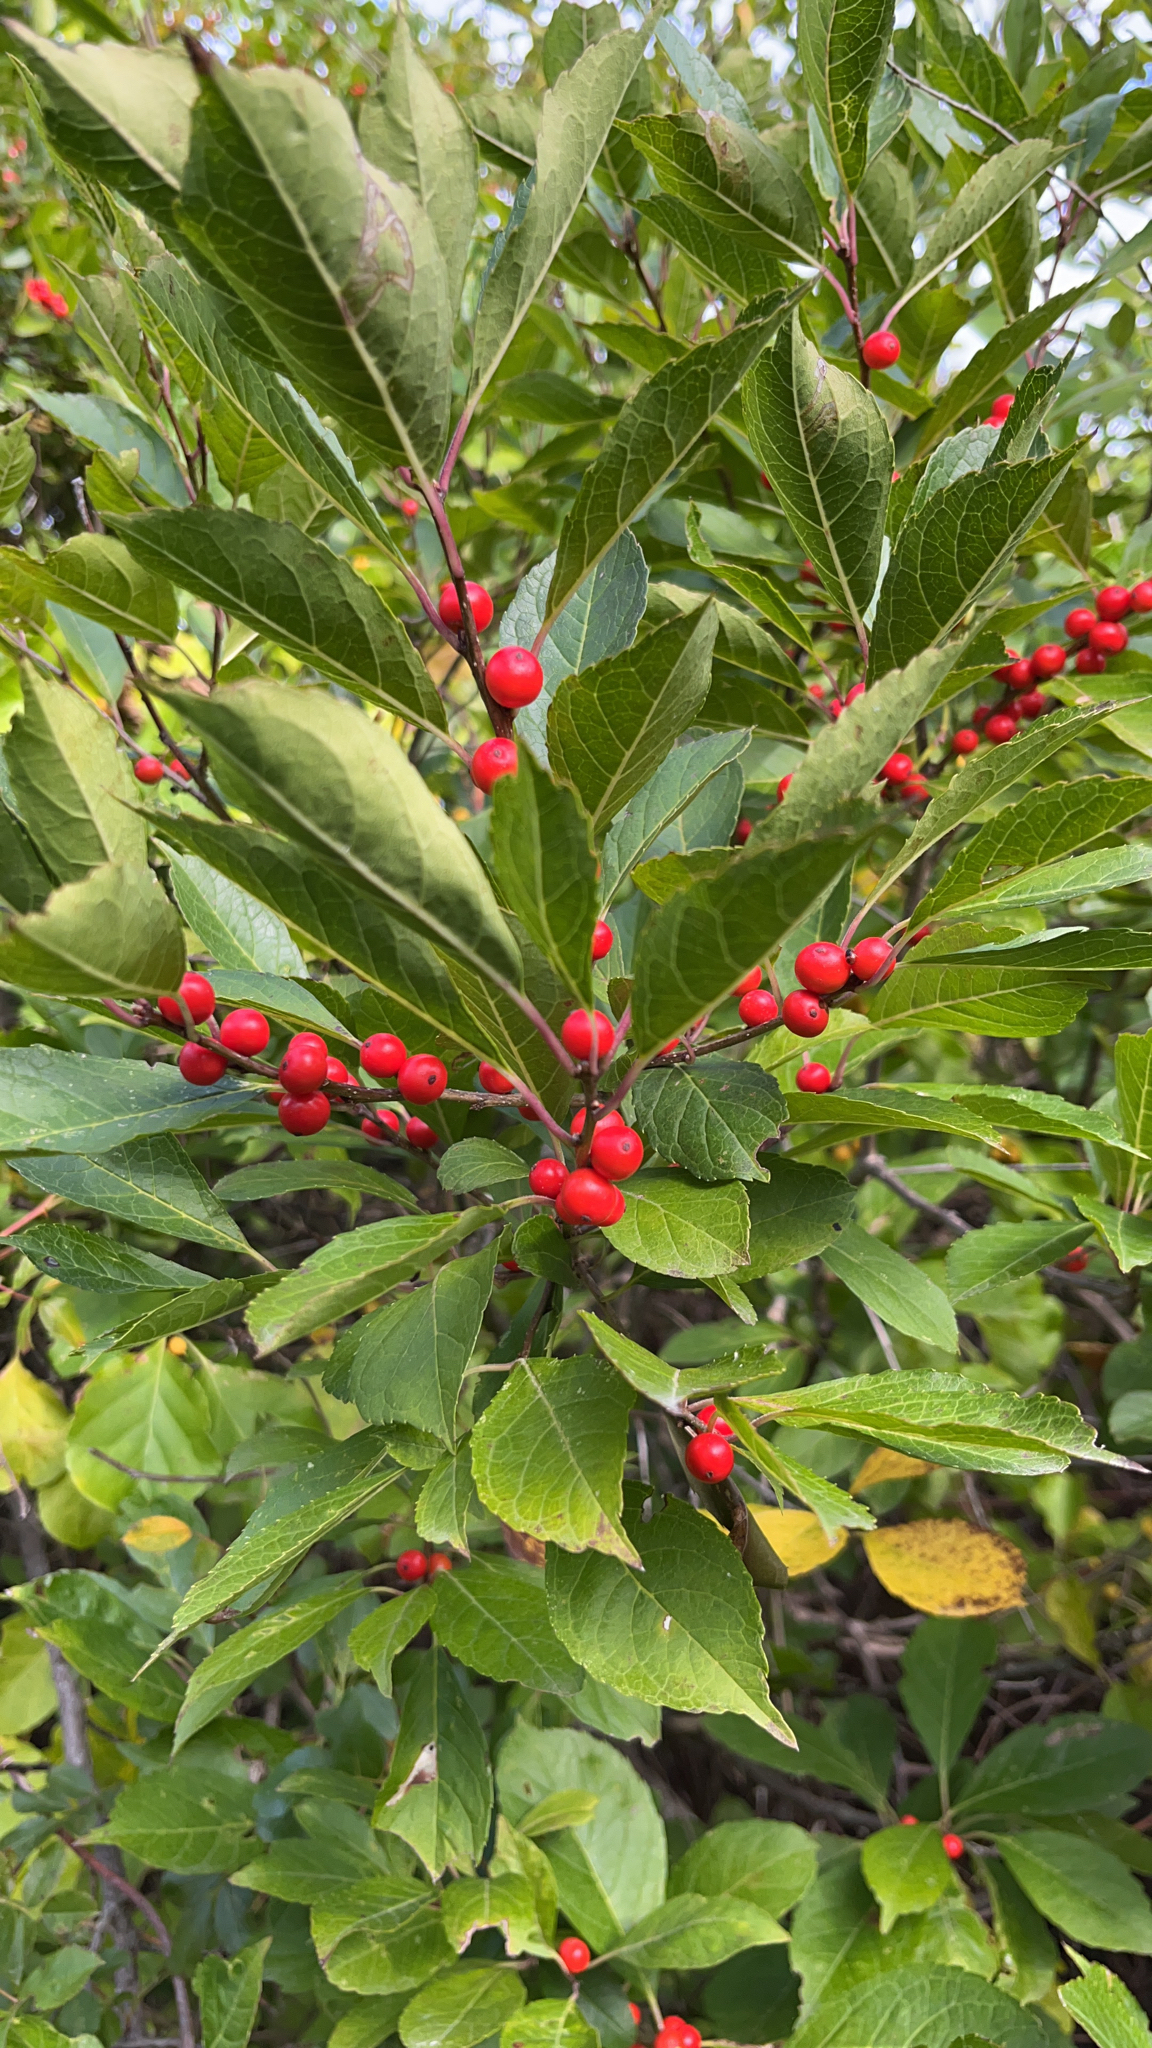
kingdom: Plantae
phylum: Tracheophyta
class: Magnoliopsida
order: Aquifoliales
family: Aquifoliaceae
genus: Ilex
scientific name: Ilex verticillata
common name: Virginia winterberry
